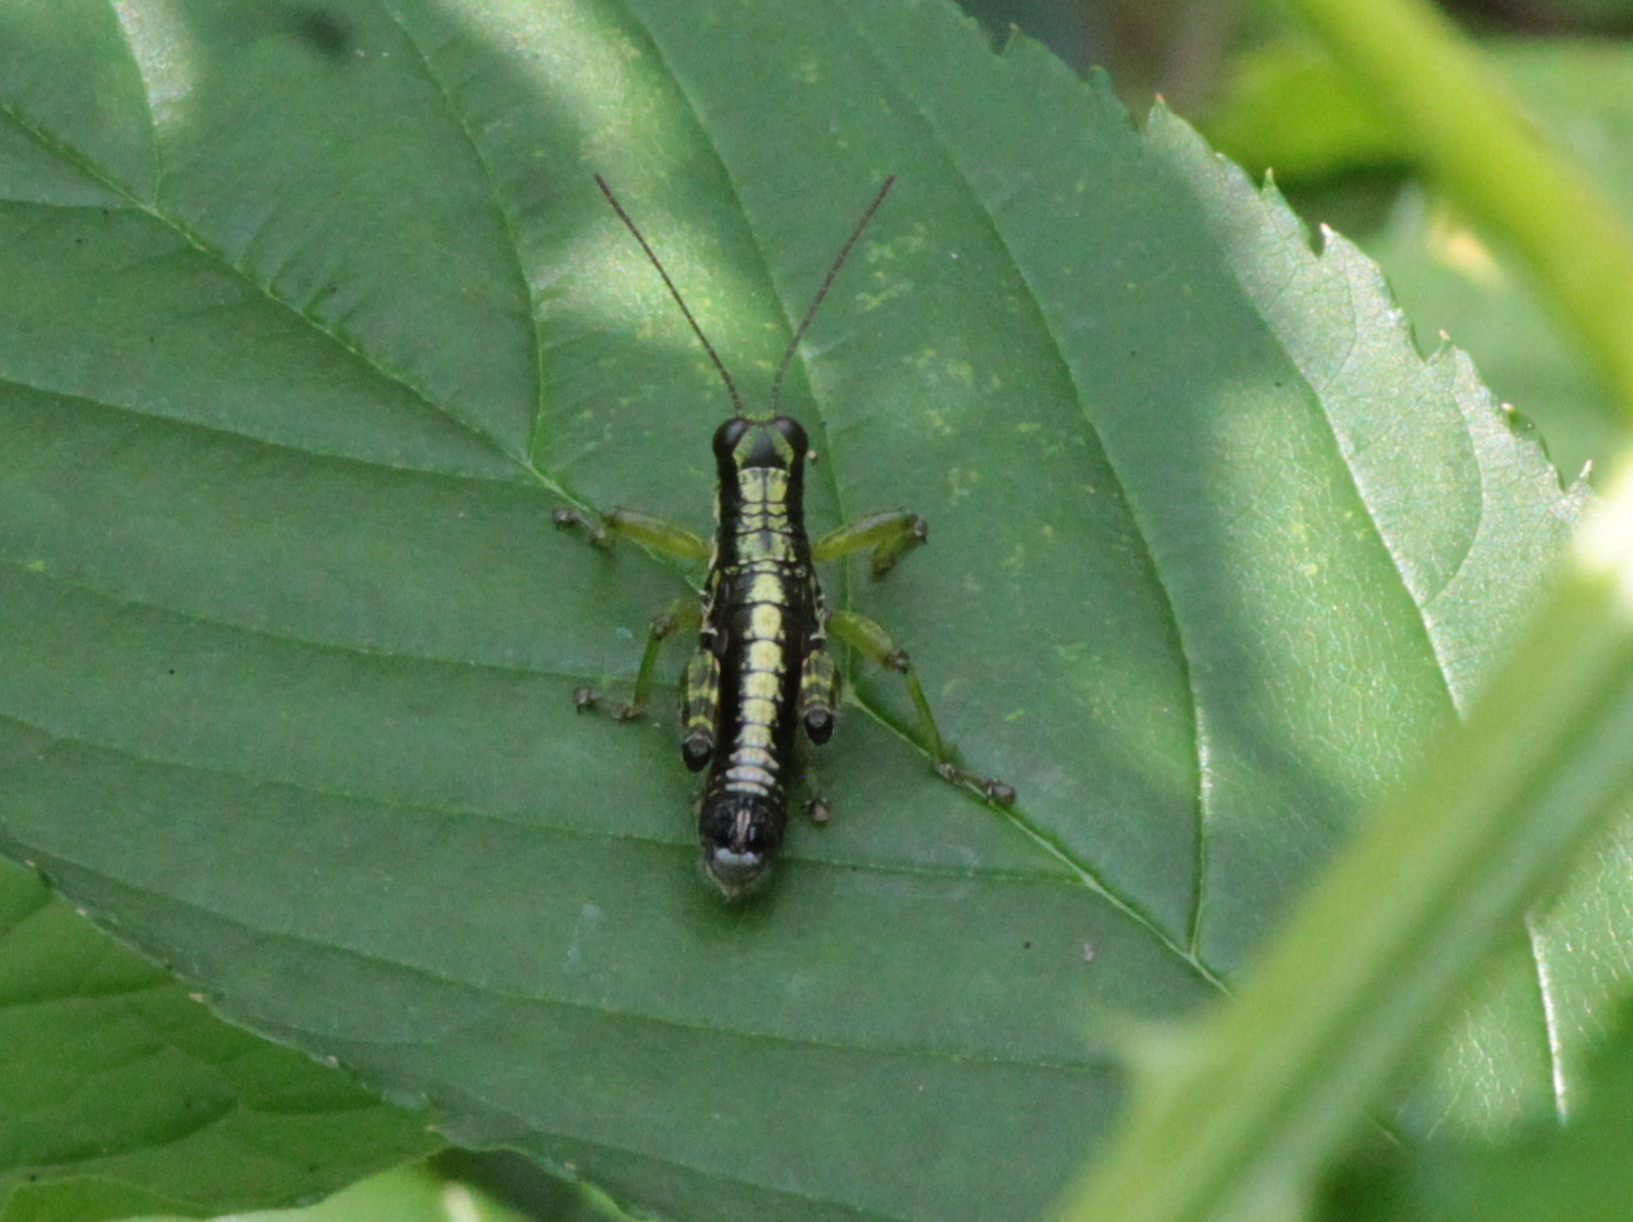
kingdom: Animalia
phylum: Arthropoda
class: Insecta
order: Orthoptera
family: Acrididae
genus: Booneacris
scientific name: Booneacris glacialis
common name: Wingless mountain grasshopper
